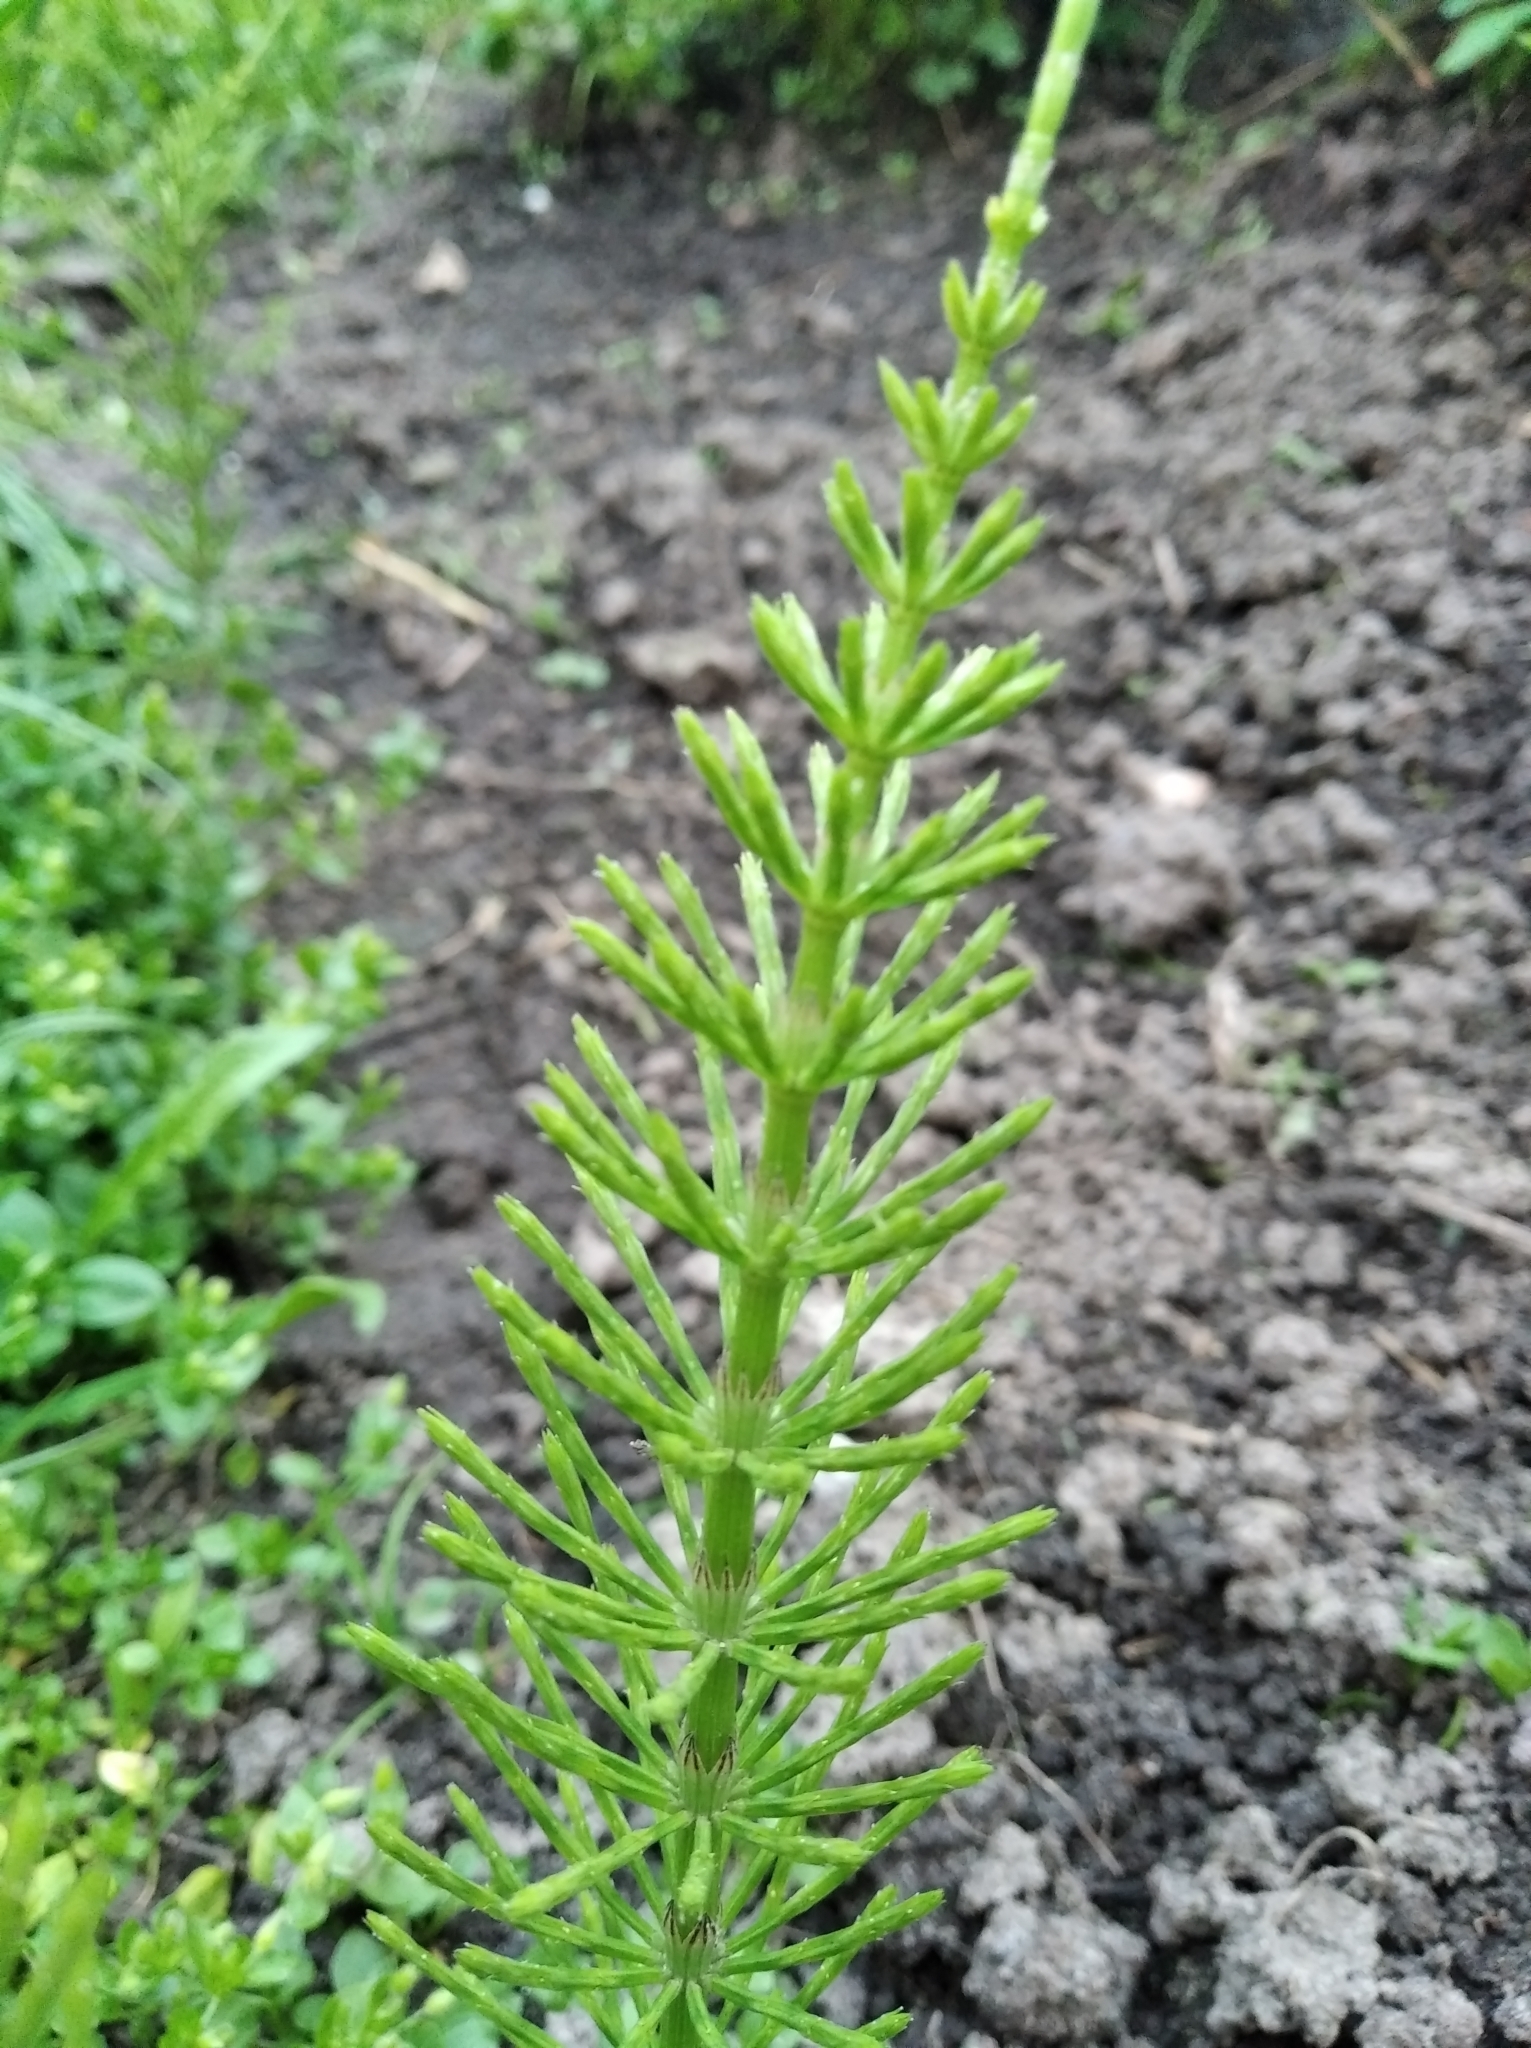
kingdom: Plantae
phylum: Tracheophyta
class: Polypodiopsida
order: Equisetales
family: Equisetaceae
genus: Equisetum
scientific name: Equisetum arvense
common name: Field horsetail
